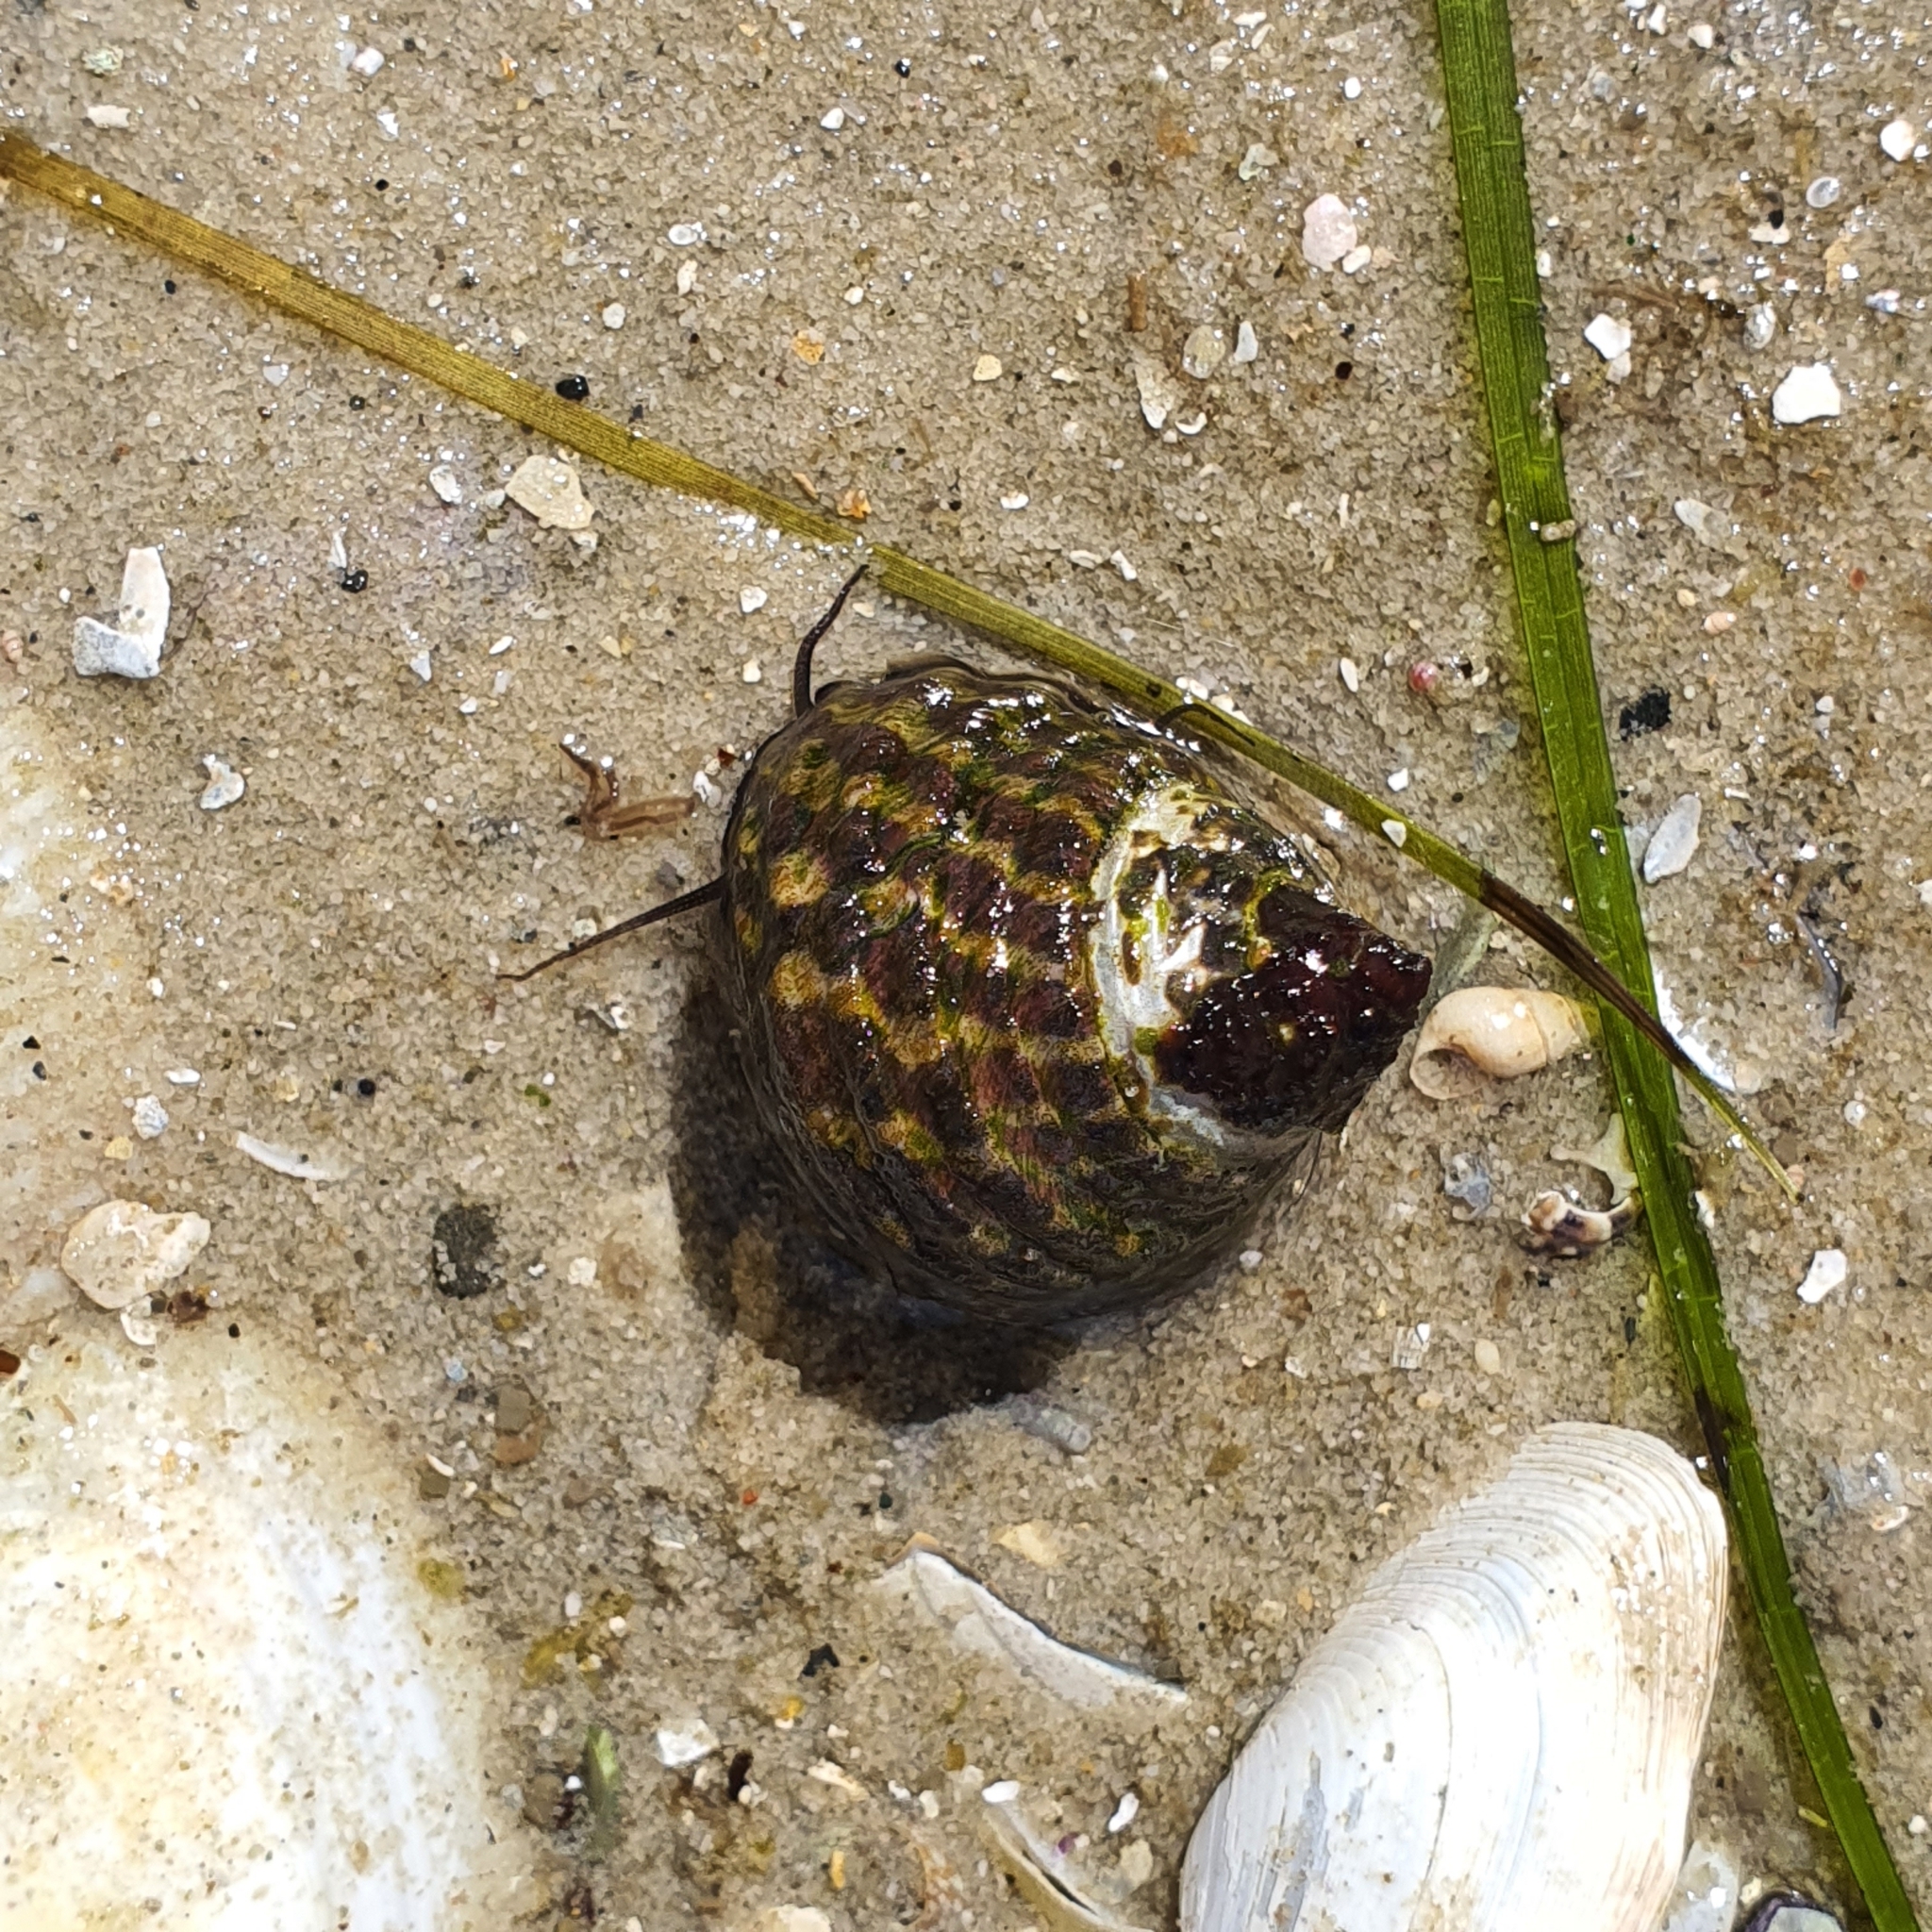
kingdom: Animalia
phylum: Mollusca
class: Gastropoda
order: Trochida
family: Trochidae
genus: Austrocochlea
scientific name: Austrocochlea porcata
